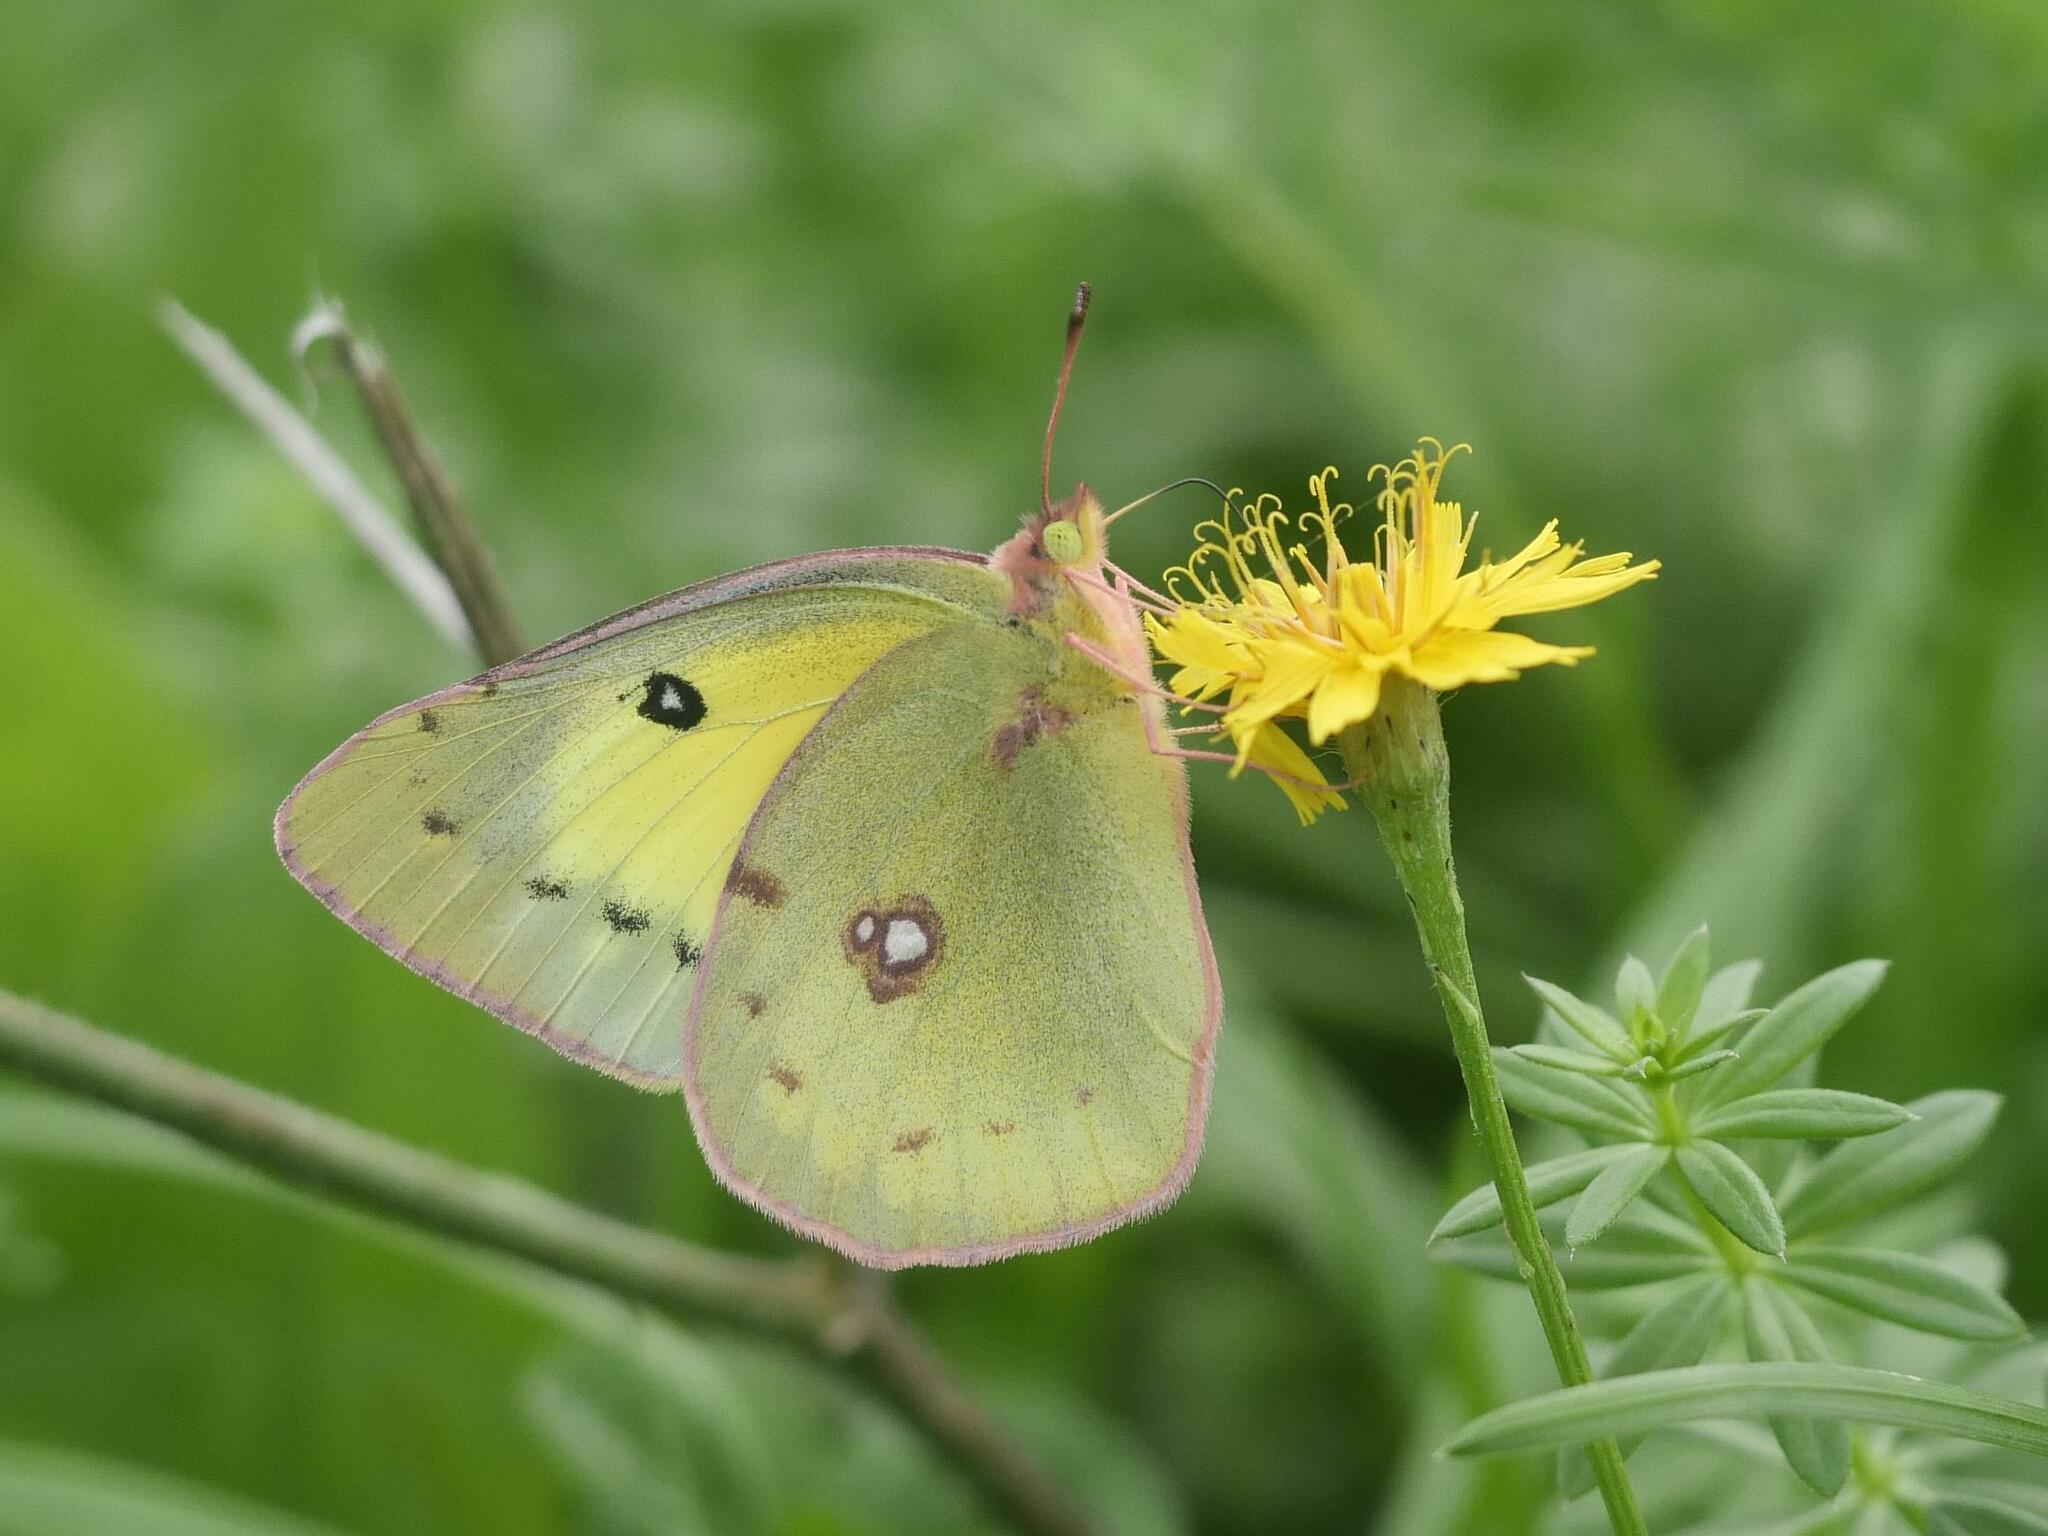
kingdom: Animalia
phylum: Arthropoda
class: Insecta
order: Lepidoptera
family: Pieridae
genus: Colias
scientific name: Colias philodice
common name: Clouded sulphur
